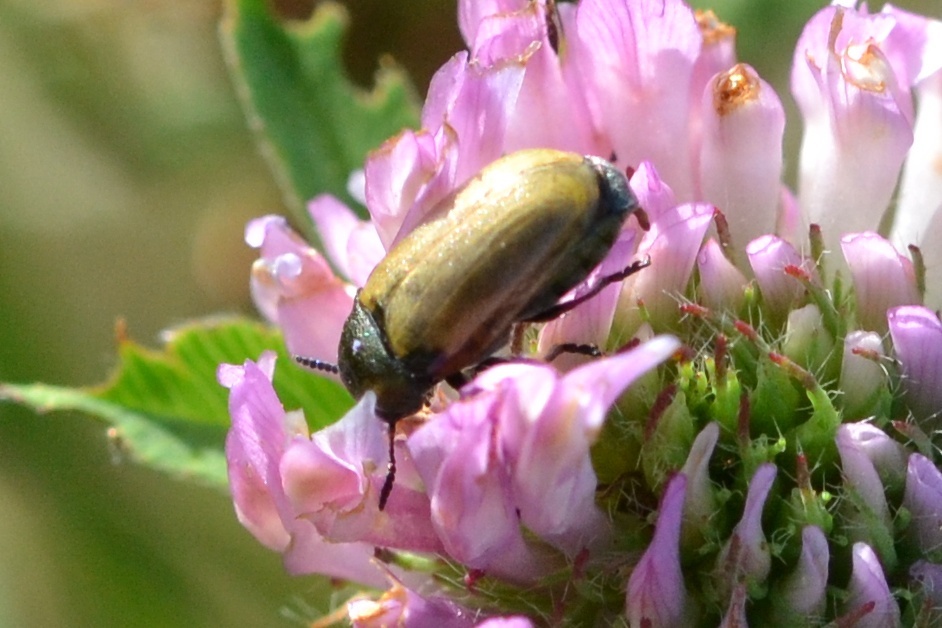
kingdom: Animalia
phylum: Arthropoda
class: Insecta
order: Coleoptera
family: Chrysomelidae
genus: Labidostomis
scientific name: Labidostomis longimana
